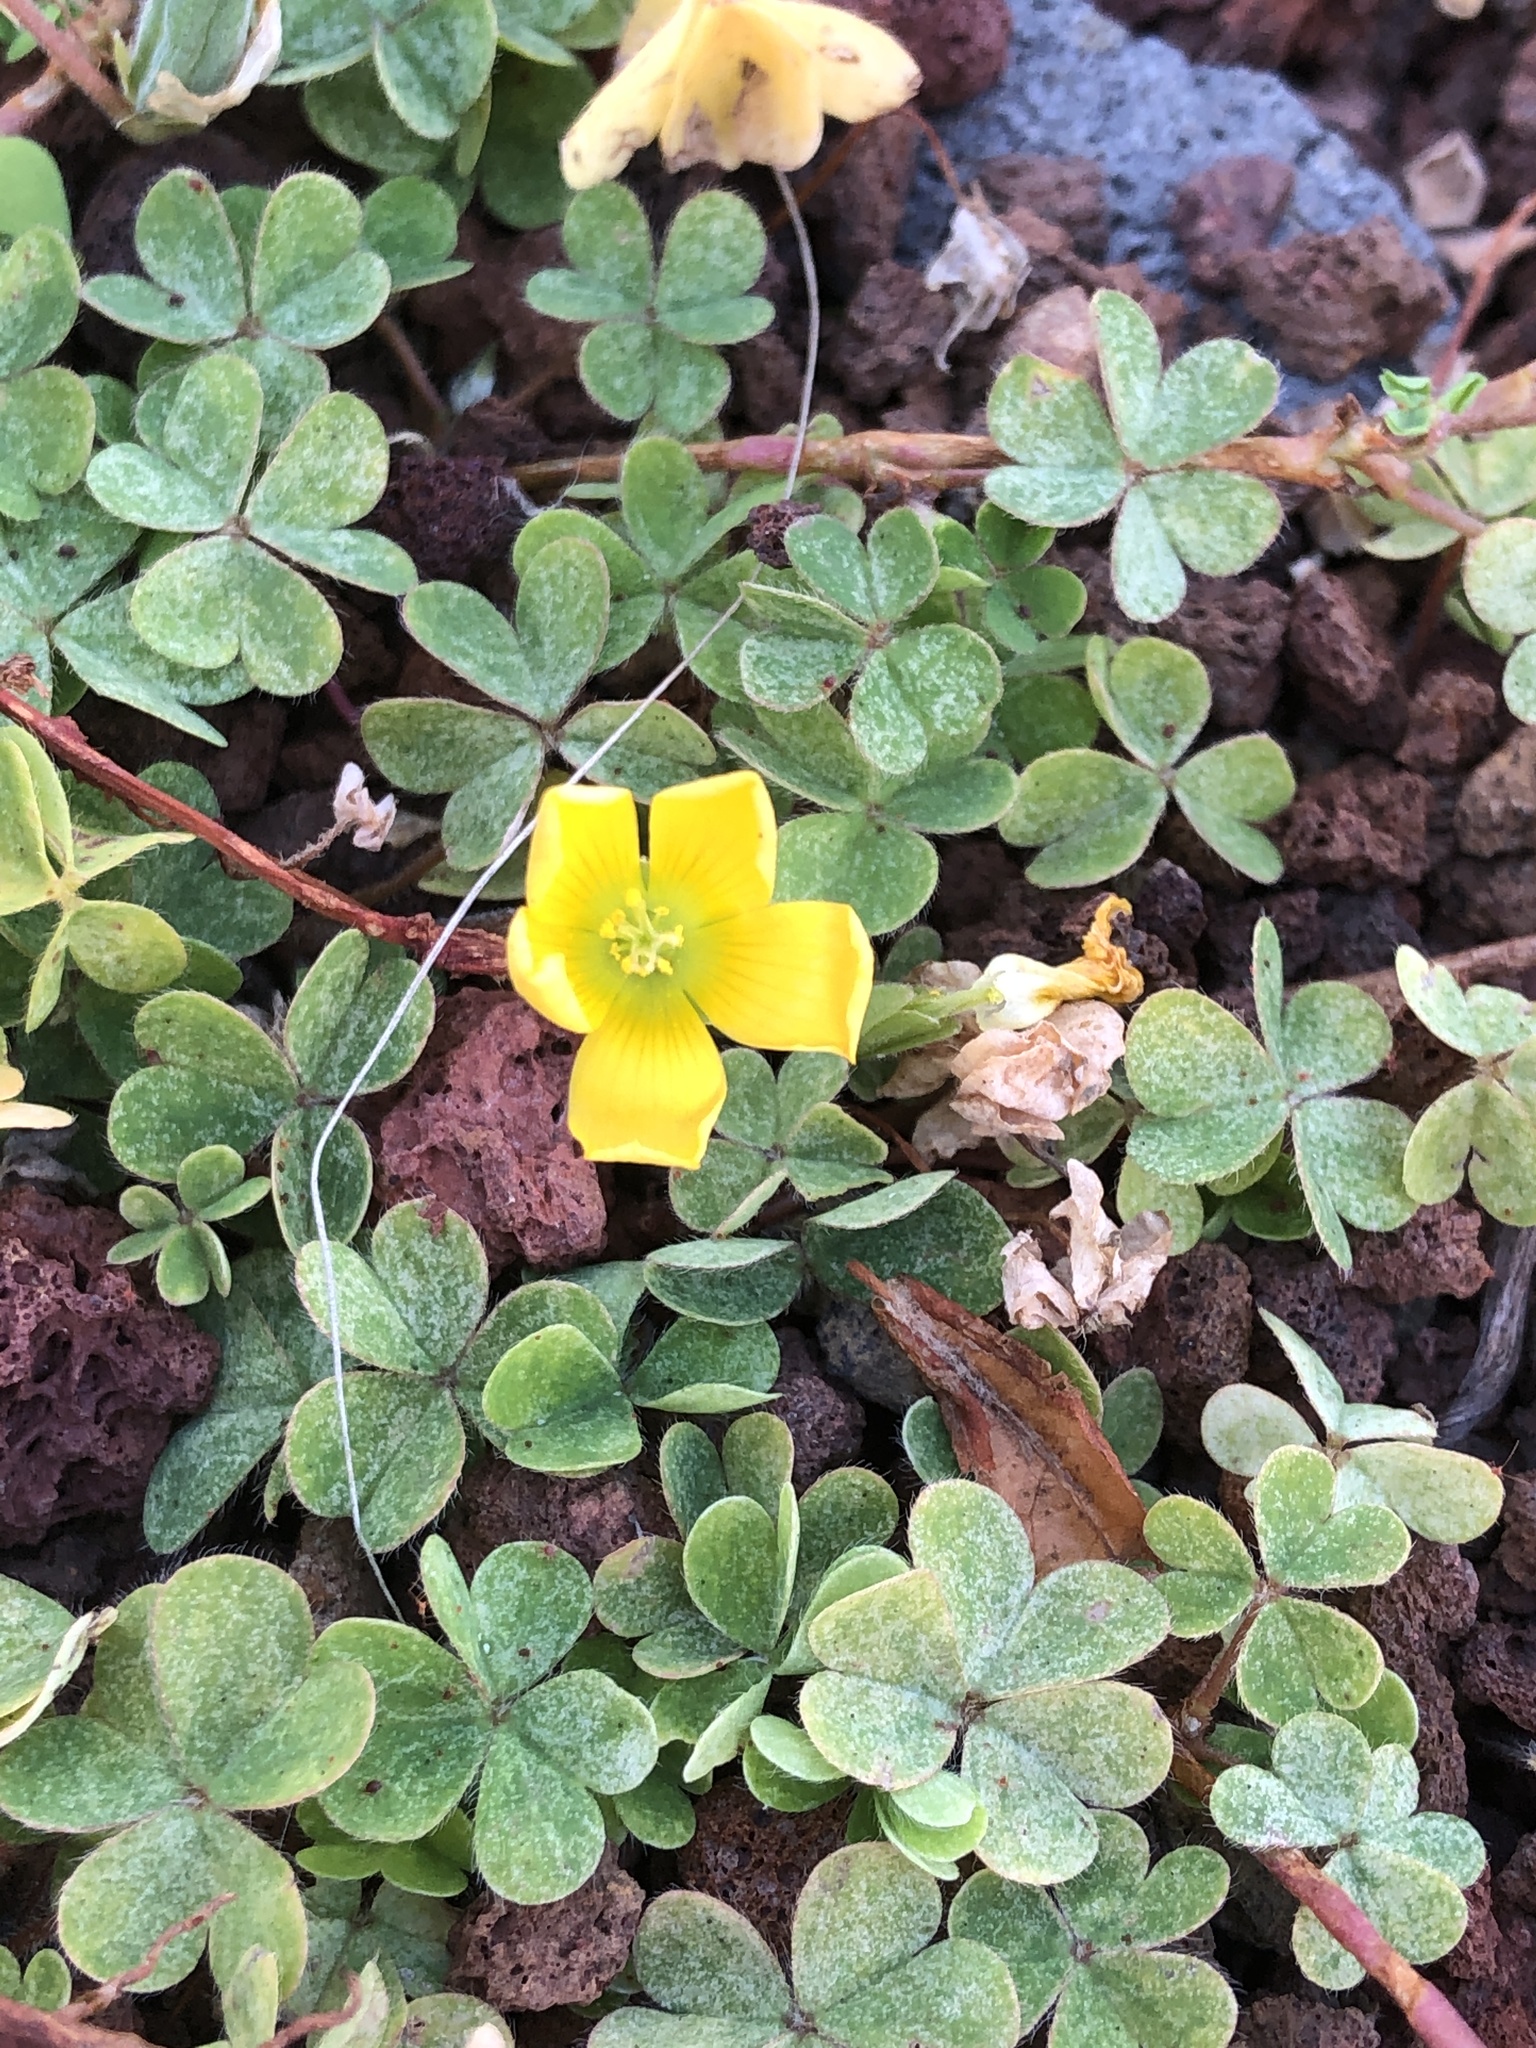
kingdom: Plantae
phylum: Tracheophyta
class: Magnoliopsida
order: Oxalidales
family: Oxalidaceae
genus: Oxalis
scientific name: Oxalis corniculata
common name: Procumbent yellow-sorrel
